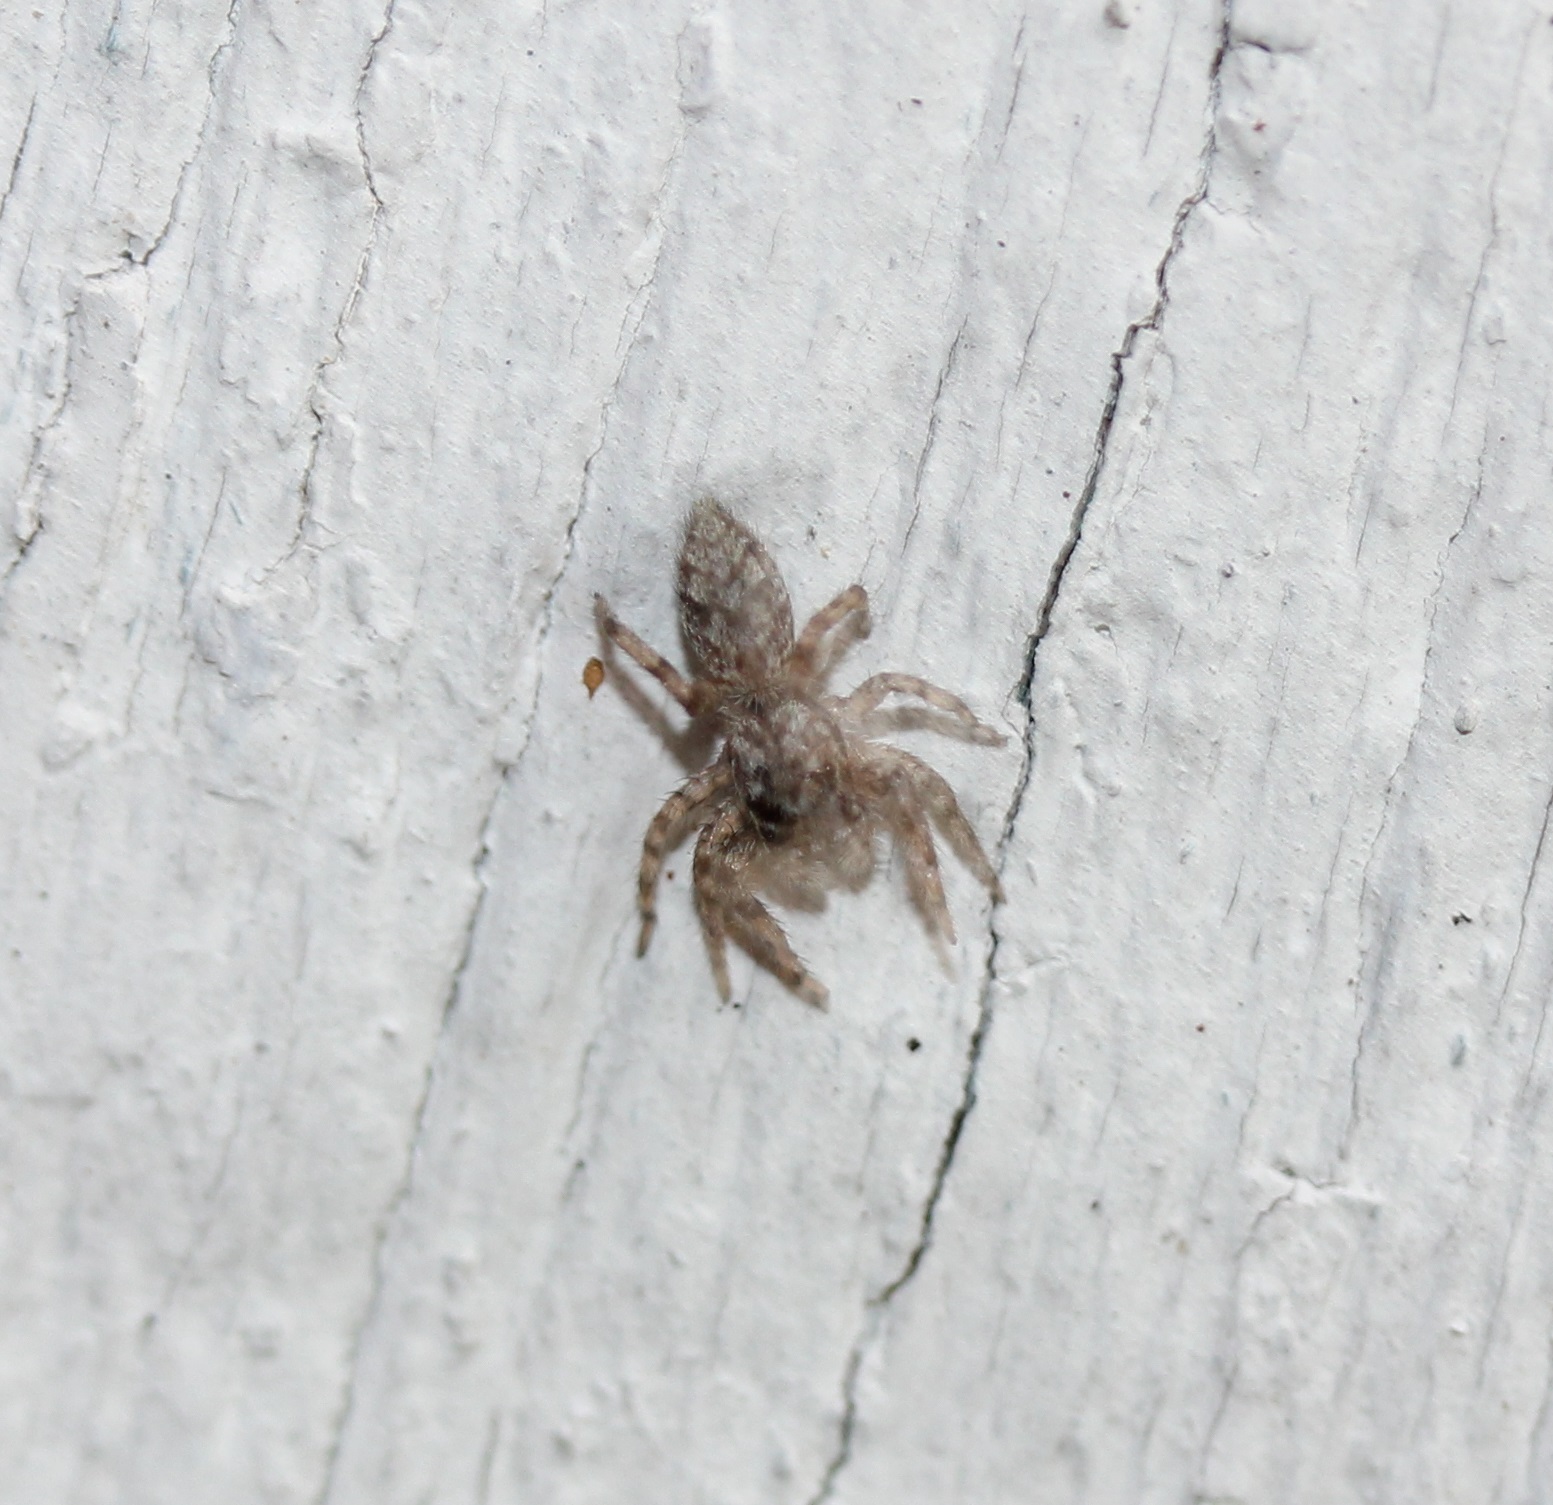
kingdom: Animalia
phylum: Arthropoda
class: Arachnida
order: Araneae
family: Salticidae
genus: Platycryptus
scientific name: Platycryptus undatus
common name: Tan jumping spider
